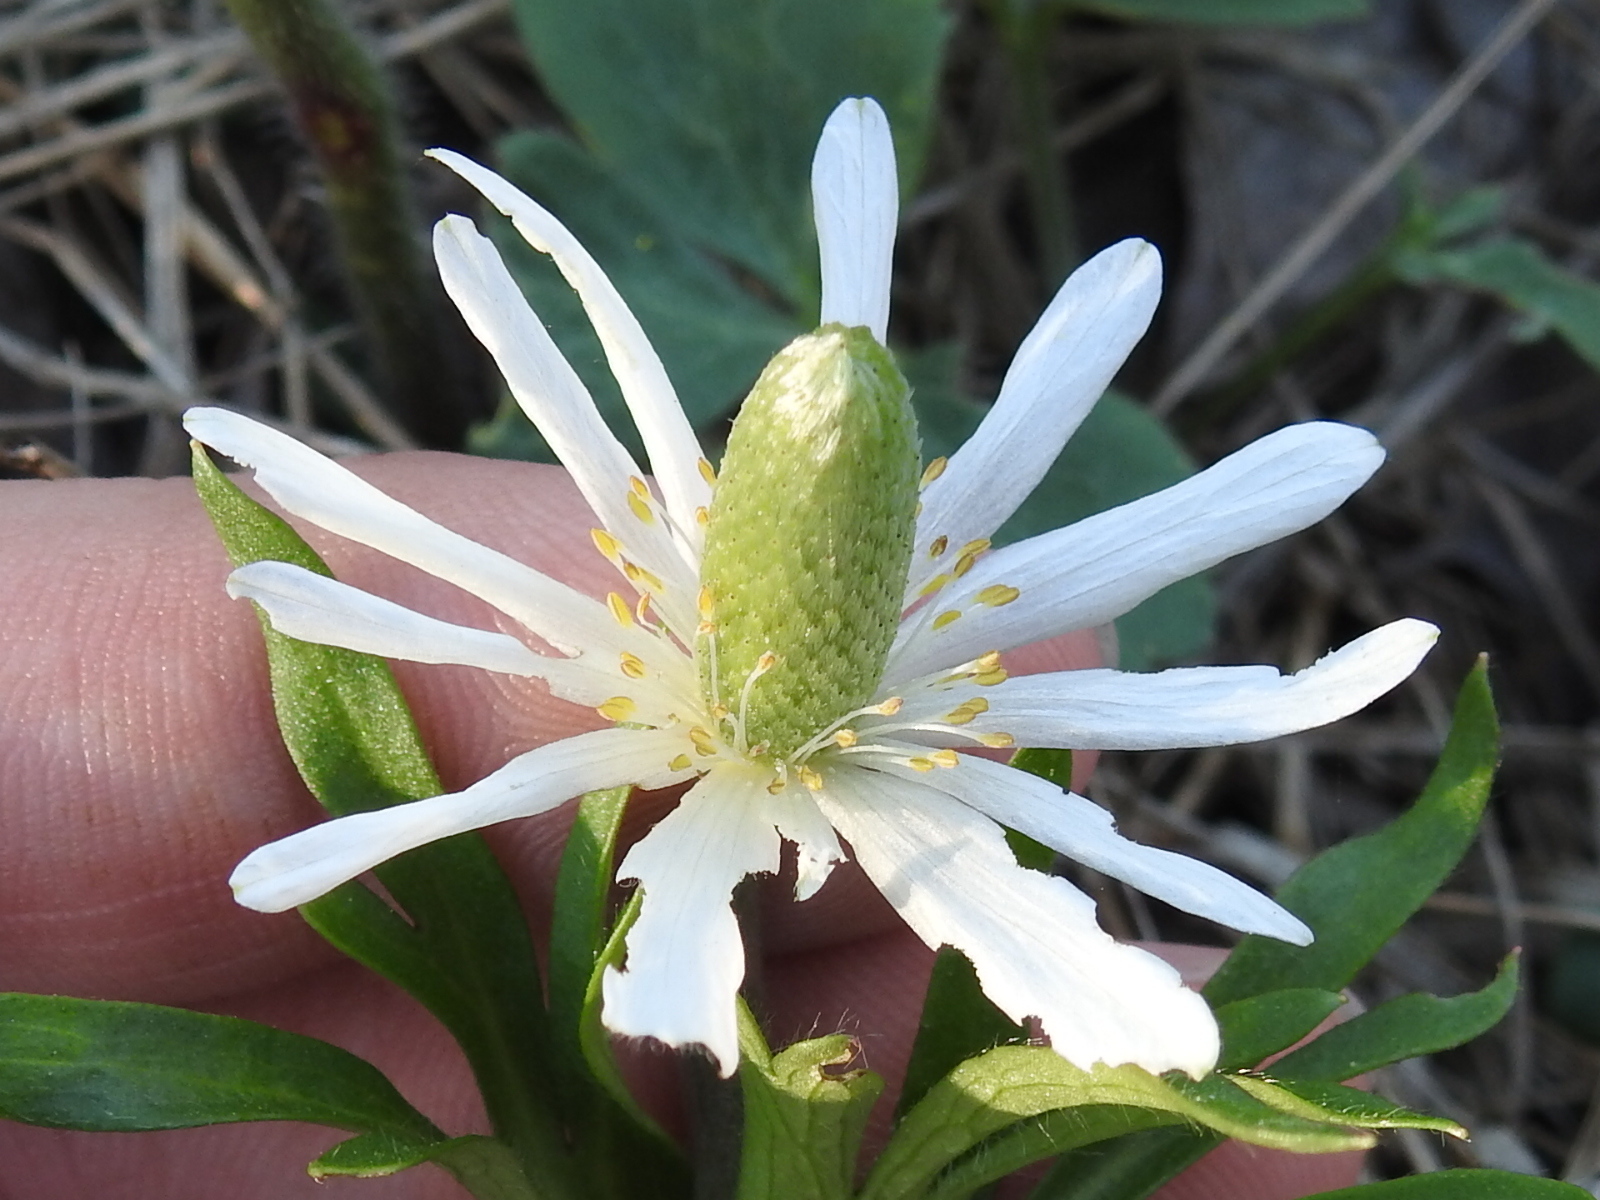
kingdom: Plantae
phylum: Tracheophyta
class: Magnoliopsida
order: Ranunculales
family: Ranunculaceae
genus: Anemone
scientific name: Anemone berlandieri
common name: Ten-petal anemone
